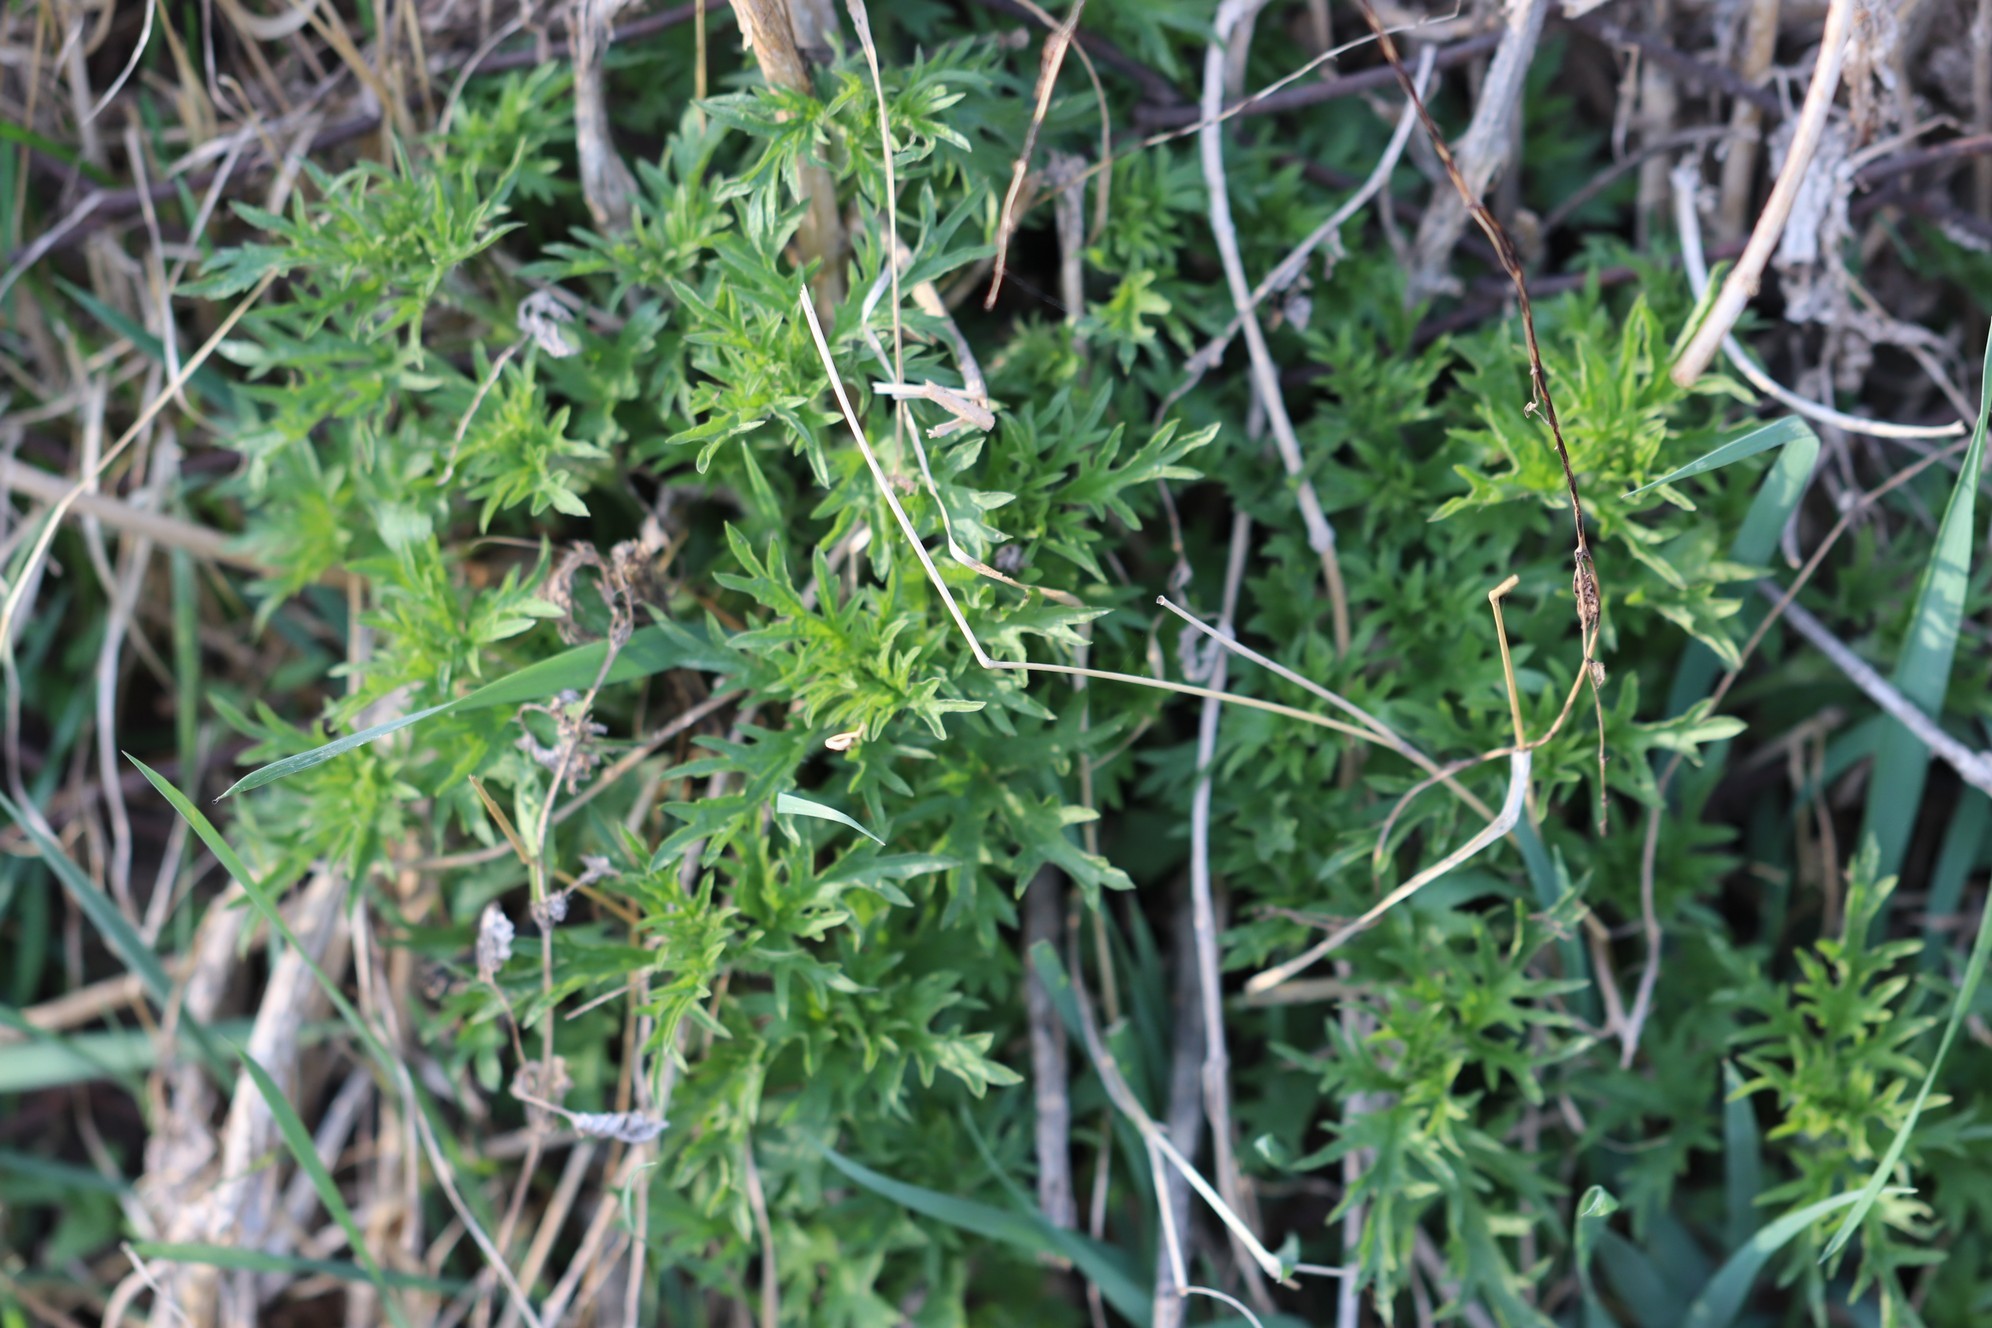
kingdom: Plantae
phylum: Tracheophyta
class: Magnoliopsida
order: Rosales
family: Urticaceae
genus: Urtica
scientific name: Urtica cannabina
